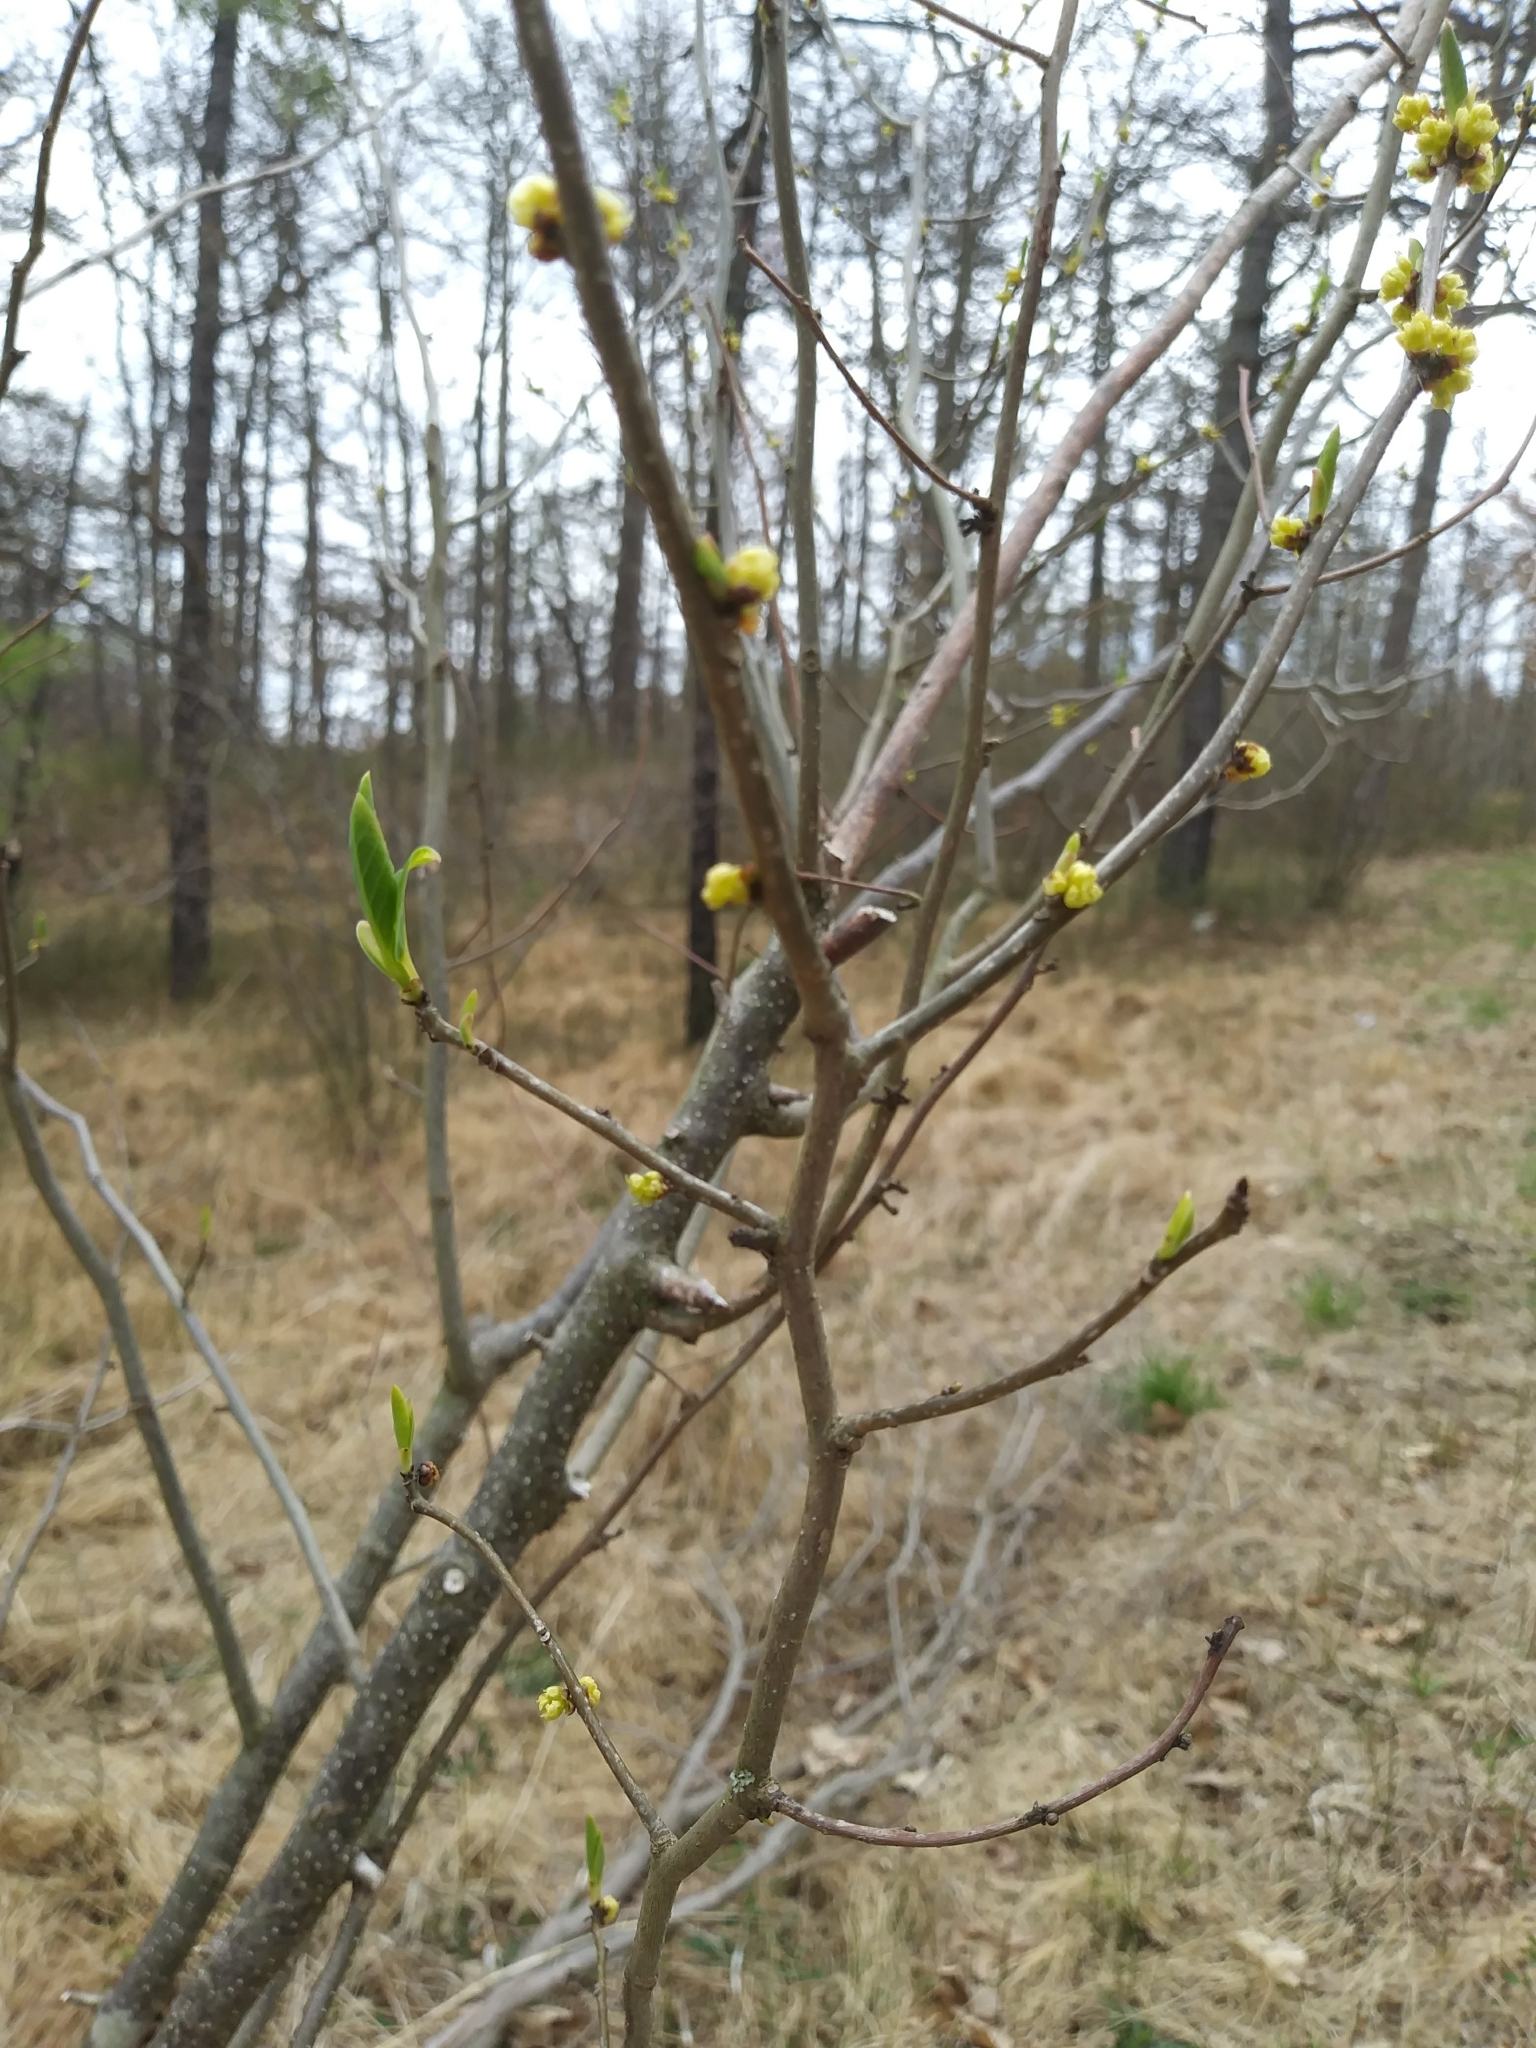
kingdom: Plantae
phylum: Tracheophyta
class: Magnoliopsida
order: Laurales
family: Lauraceae
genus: Lindera
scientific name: Lindera benzoin
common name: Spicebush
